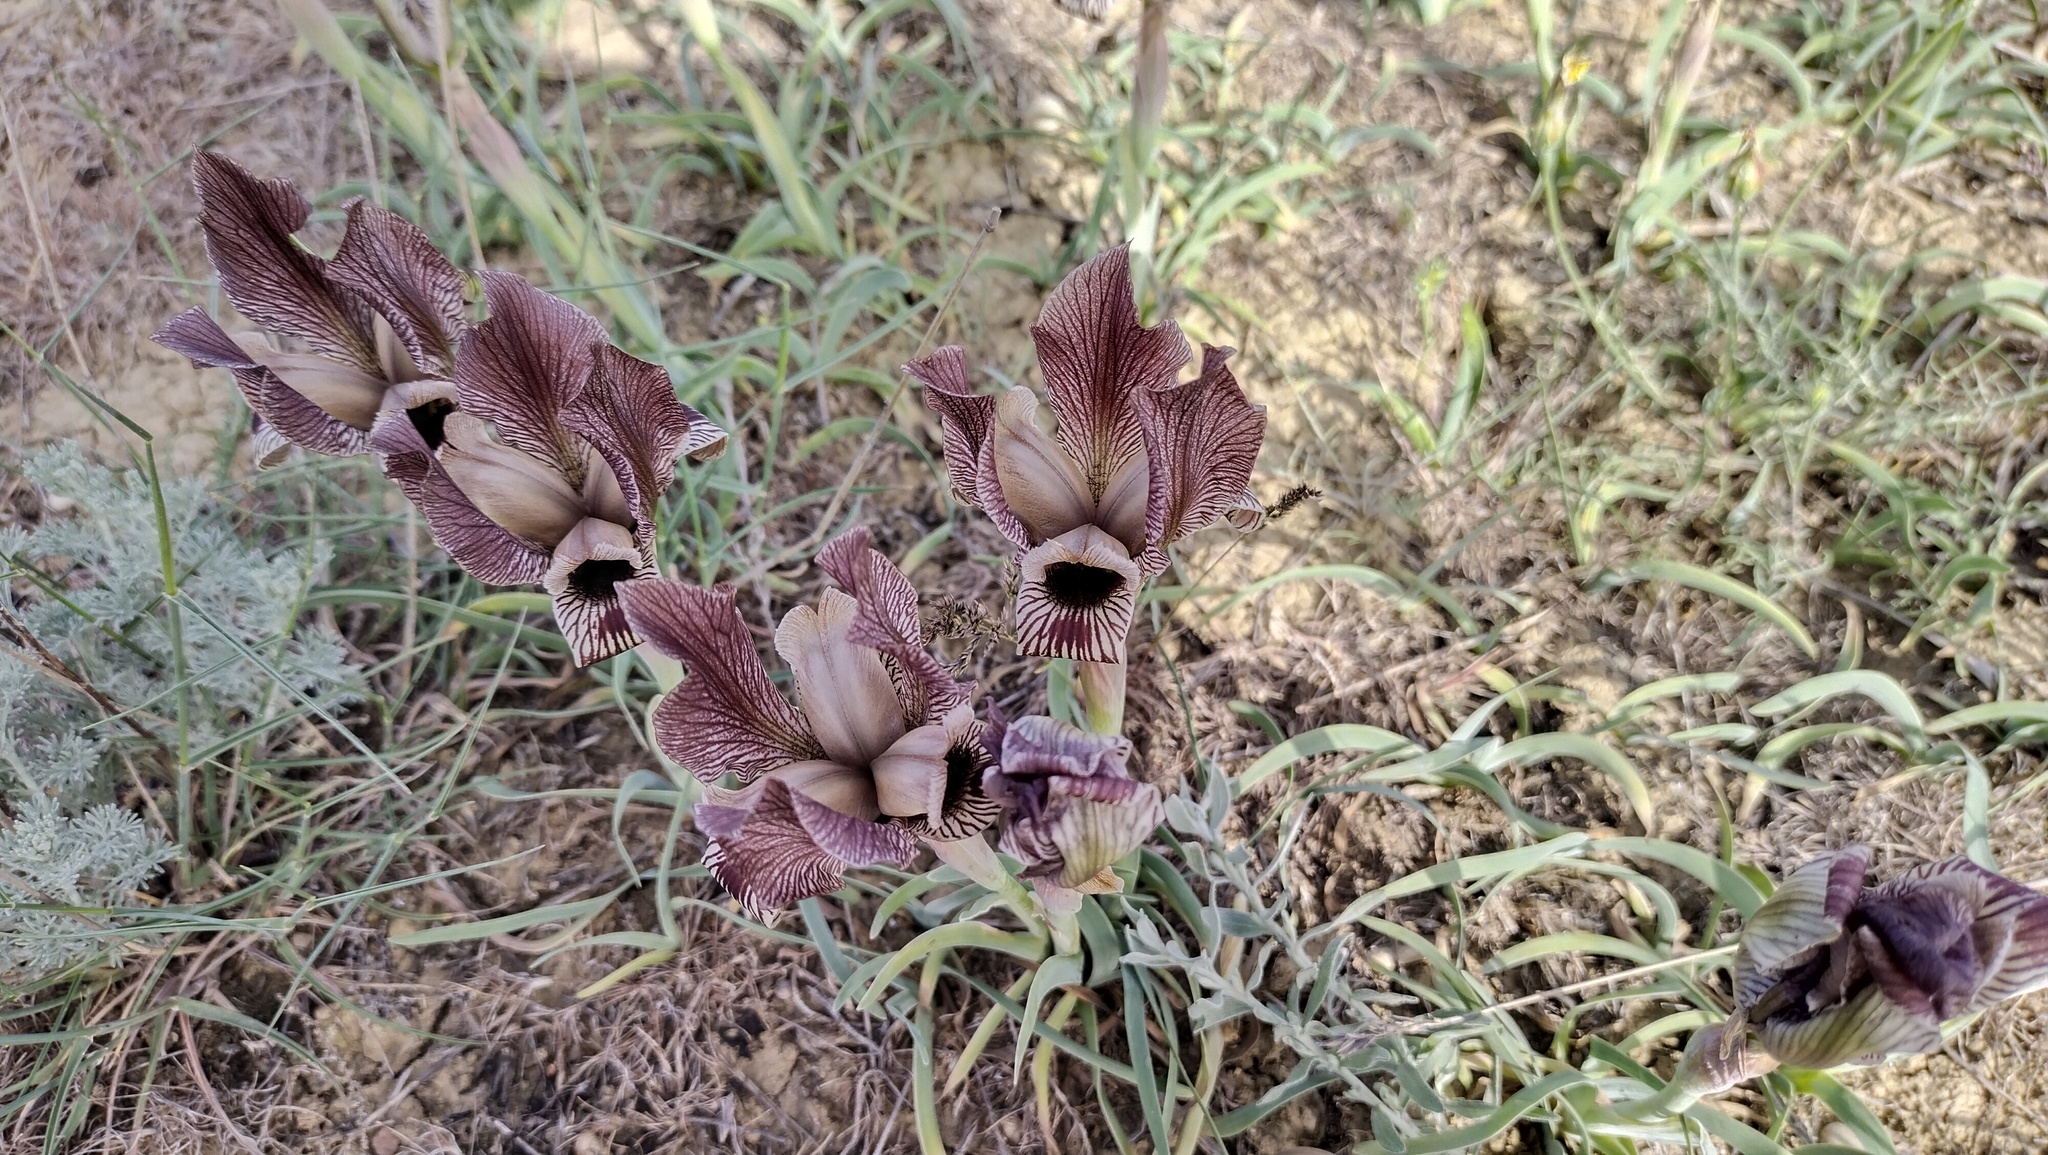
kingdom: Plantae
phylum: Tracheophyta
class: Liliopsida
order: Asparagales
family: Iridaceae
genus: Iris
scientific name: Iris acutiloba
